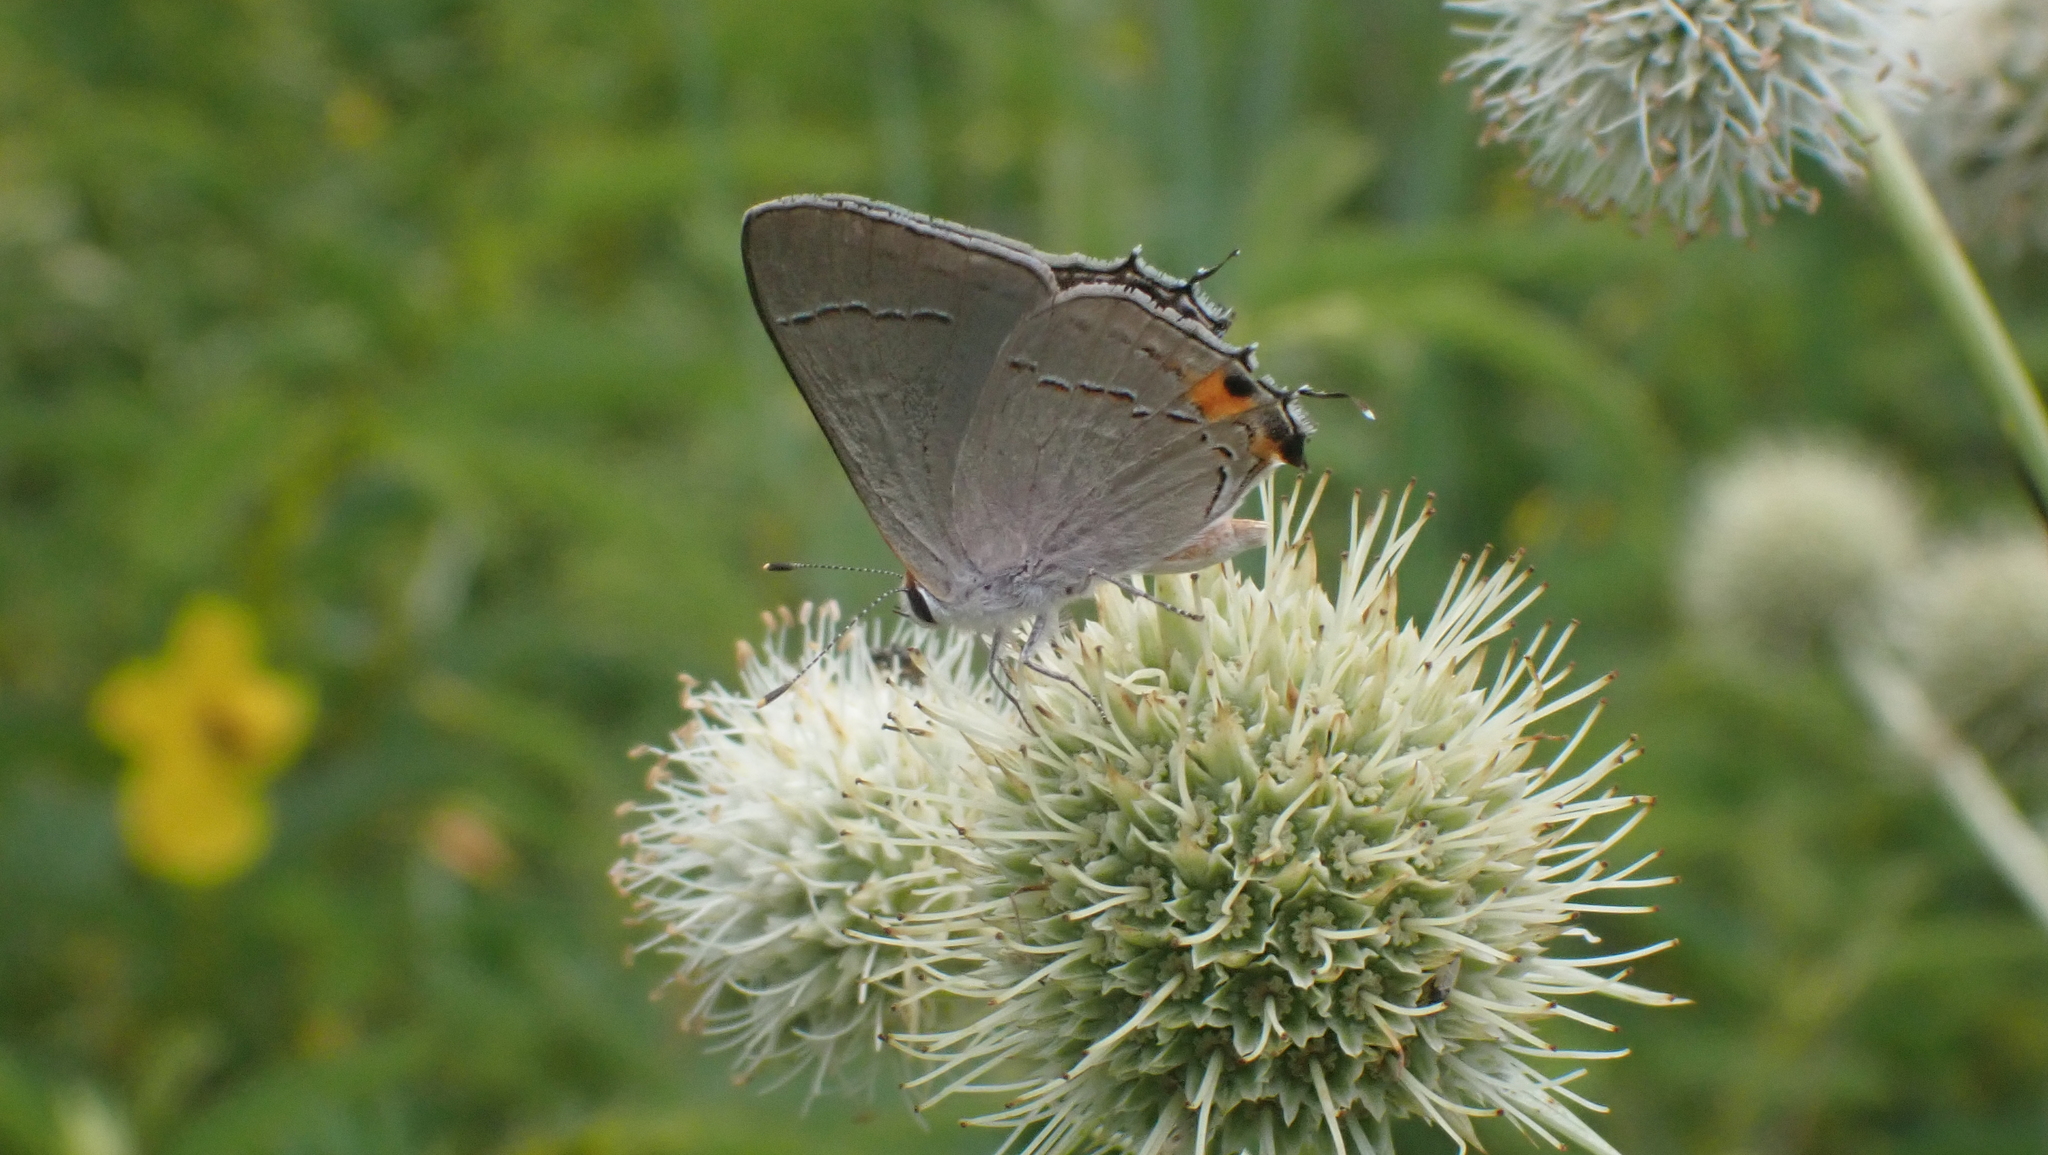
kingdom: Animalia
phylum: Arthropoda
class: Insecta
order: Lepidoptera
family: Lycaenidae
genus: Strymon
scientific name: Strymon melinus
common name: Gray hairstreak
